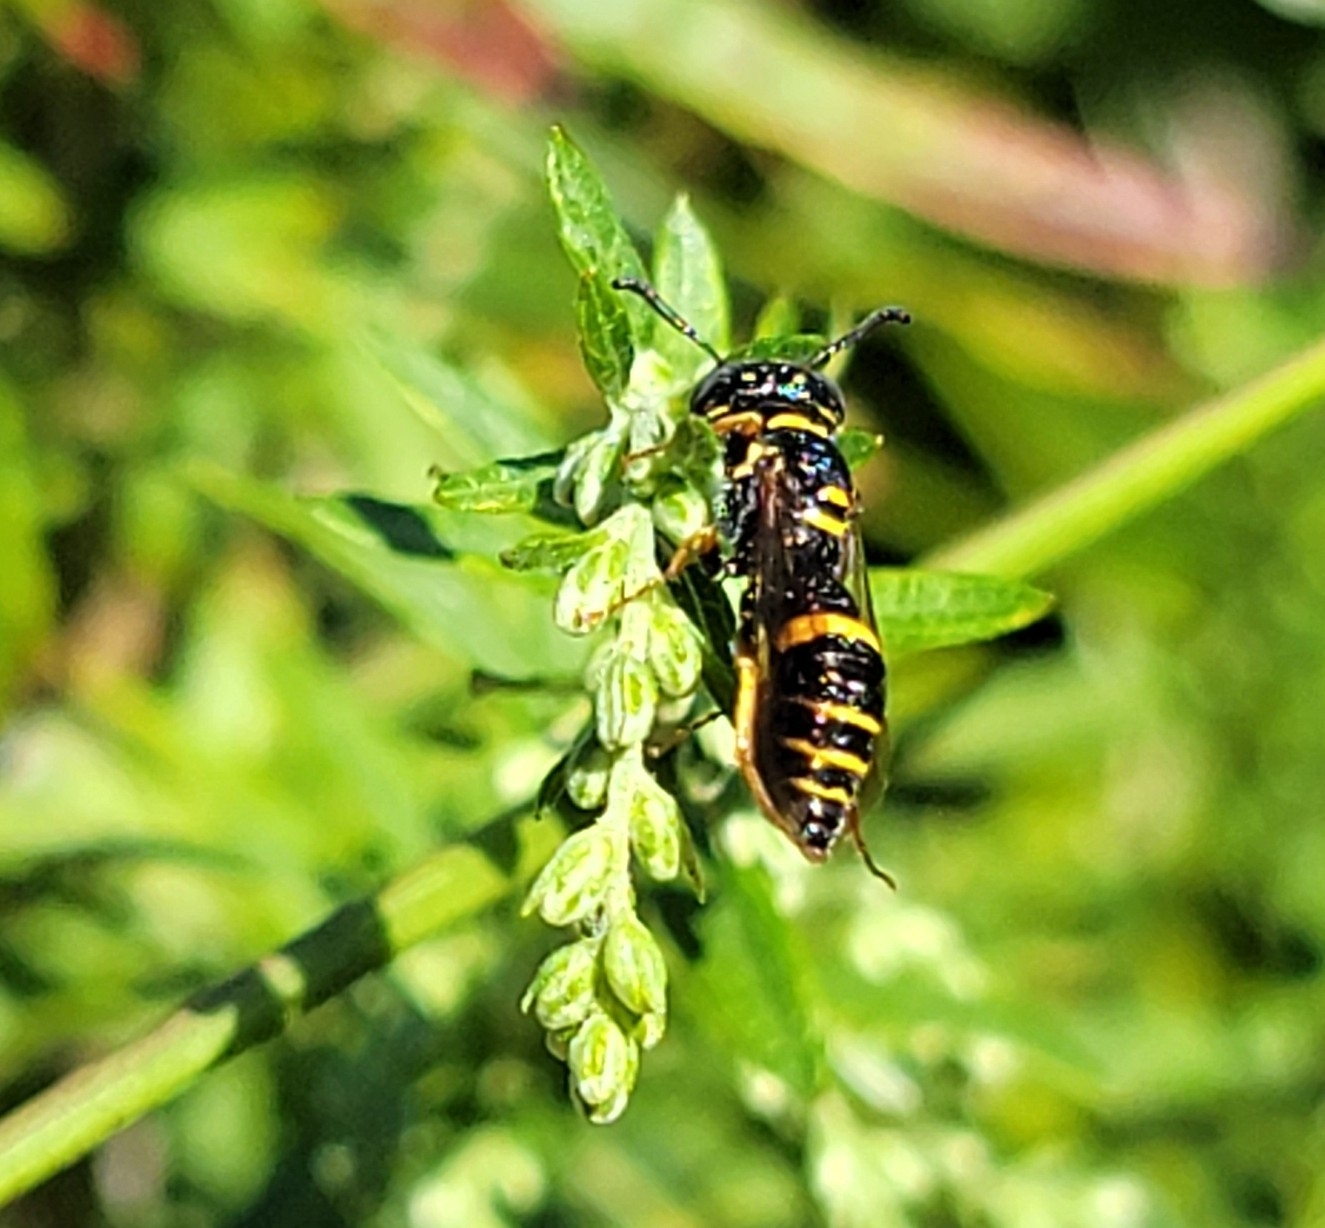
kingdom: Animalia
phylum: Arthropoda
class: Insecta
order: Hymenoptera
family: Crabronidae
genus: Philanthus
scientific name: Philanthus gibbosus
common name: Humped beewolf
